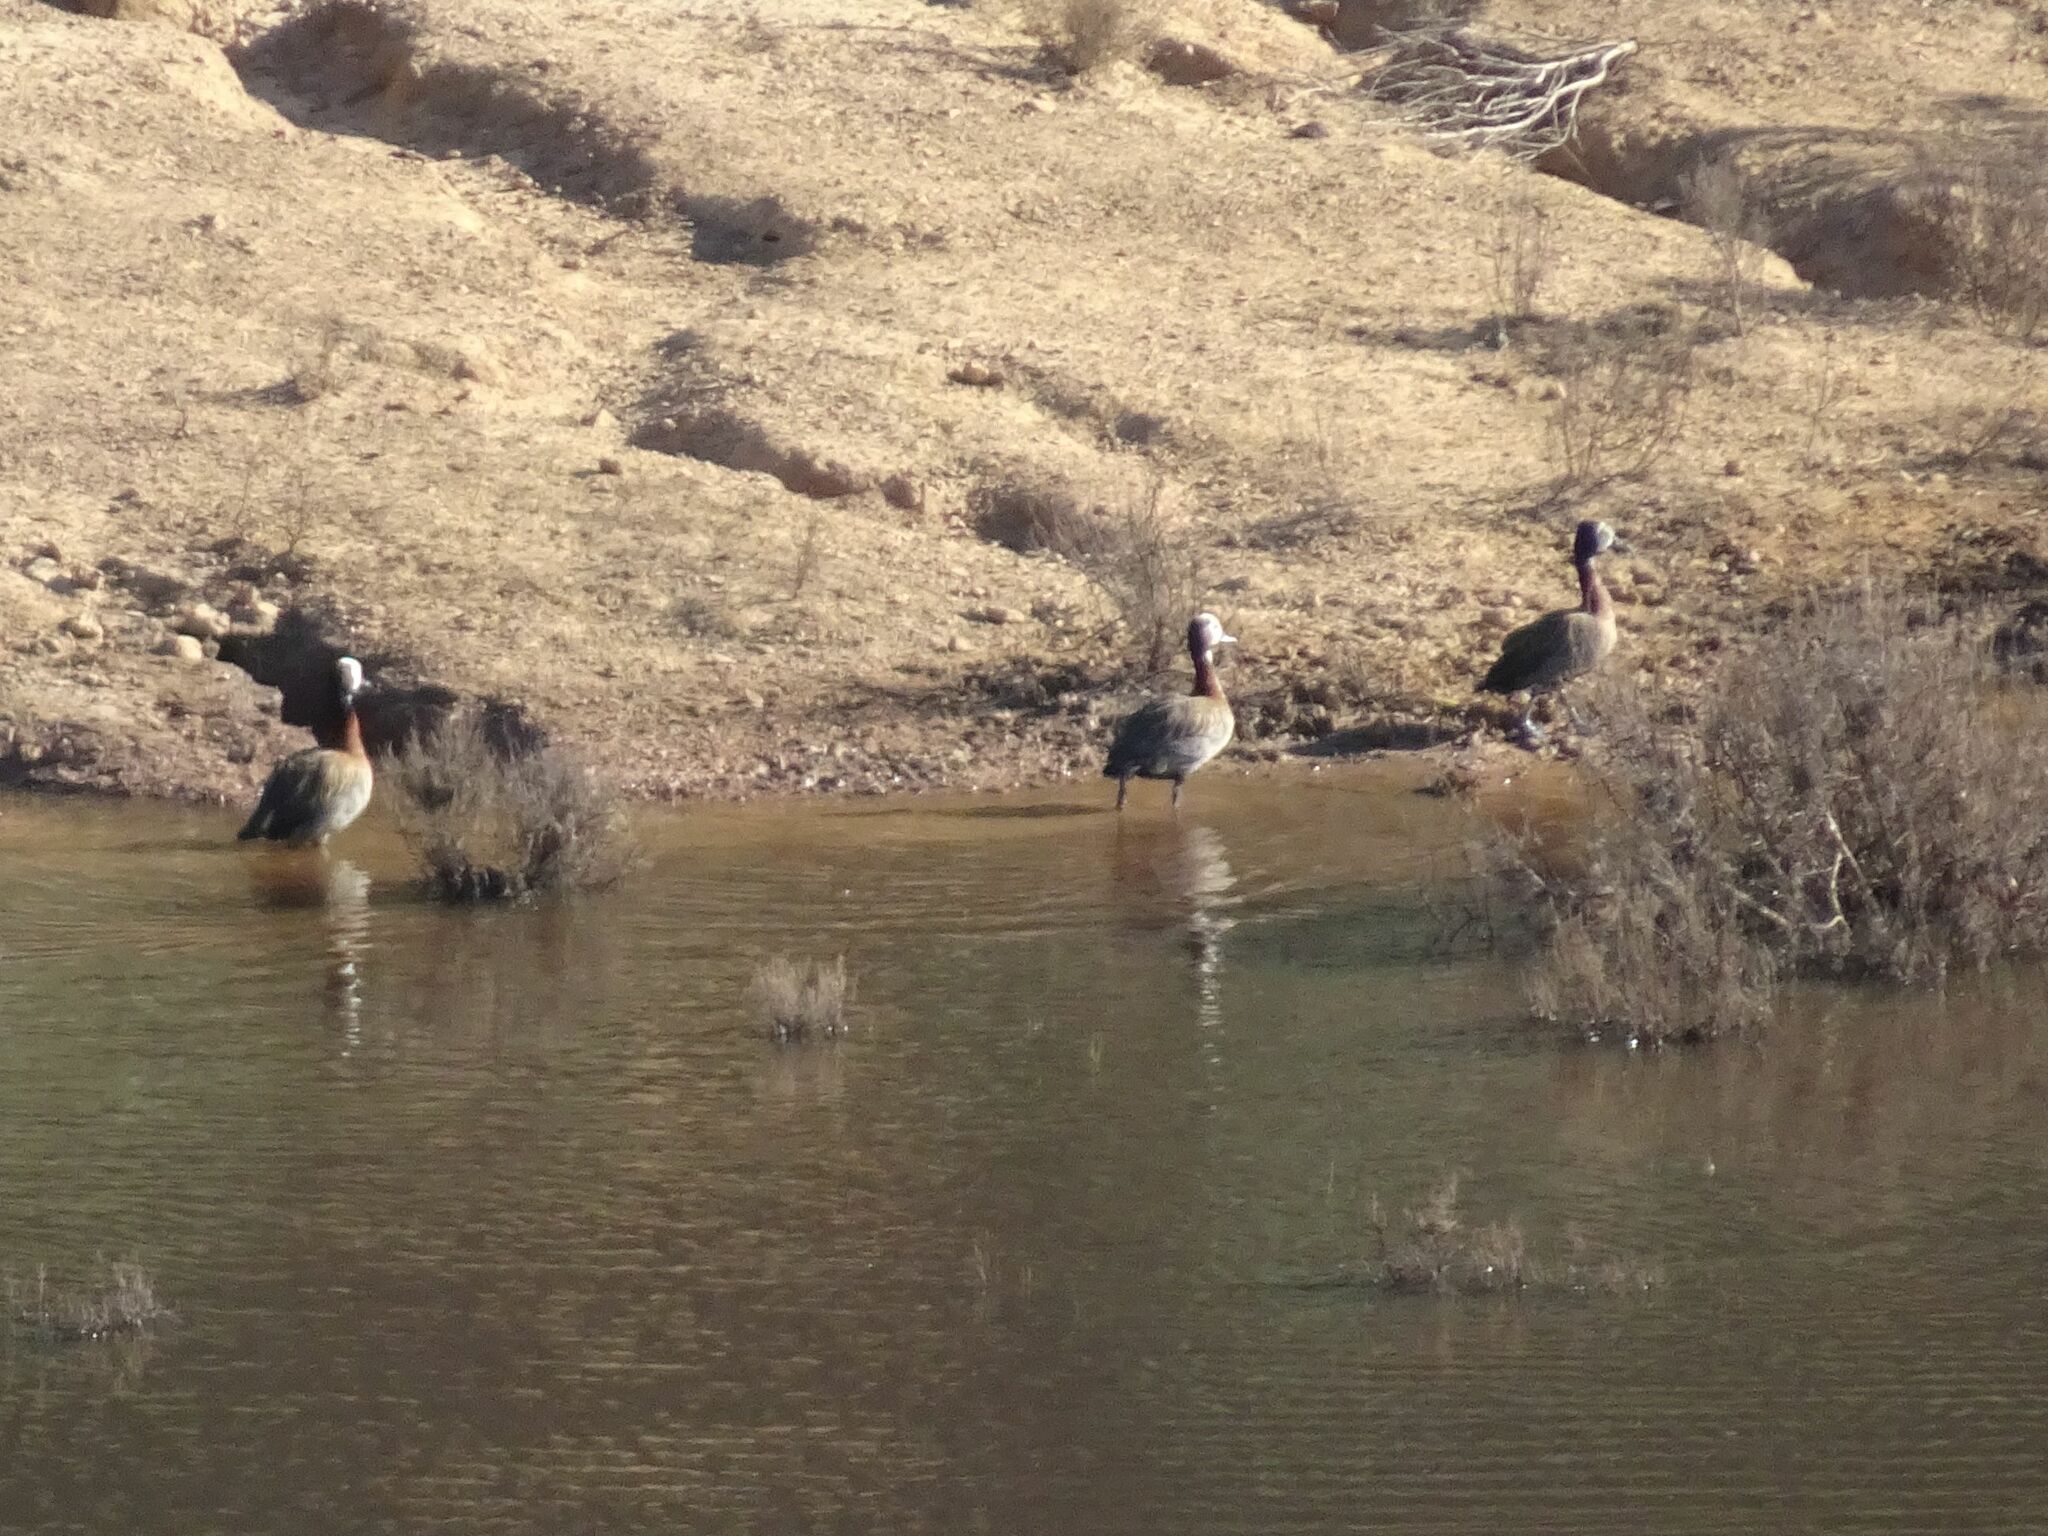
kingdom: Animalia
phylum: Chordata
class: Aves
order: Anseriformes
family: Anatidae
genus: Dendrocygna
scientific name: Dendrocygna viduata
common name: White-faced whistling duck
